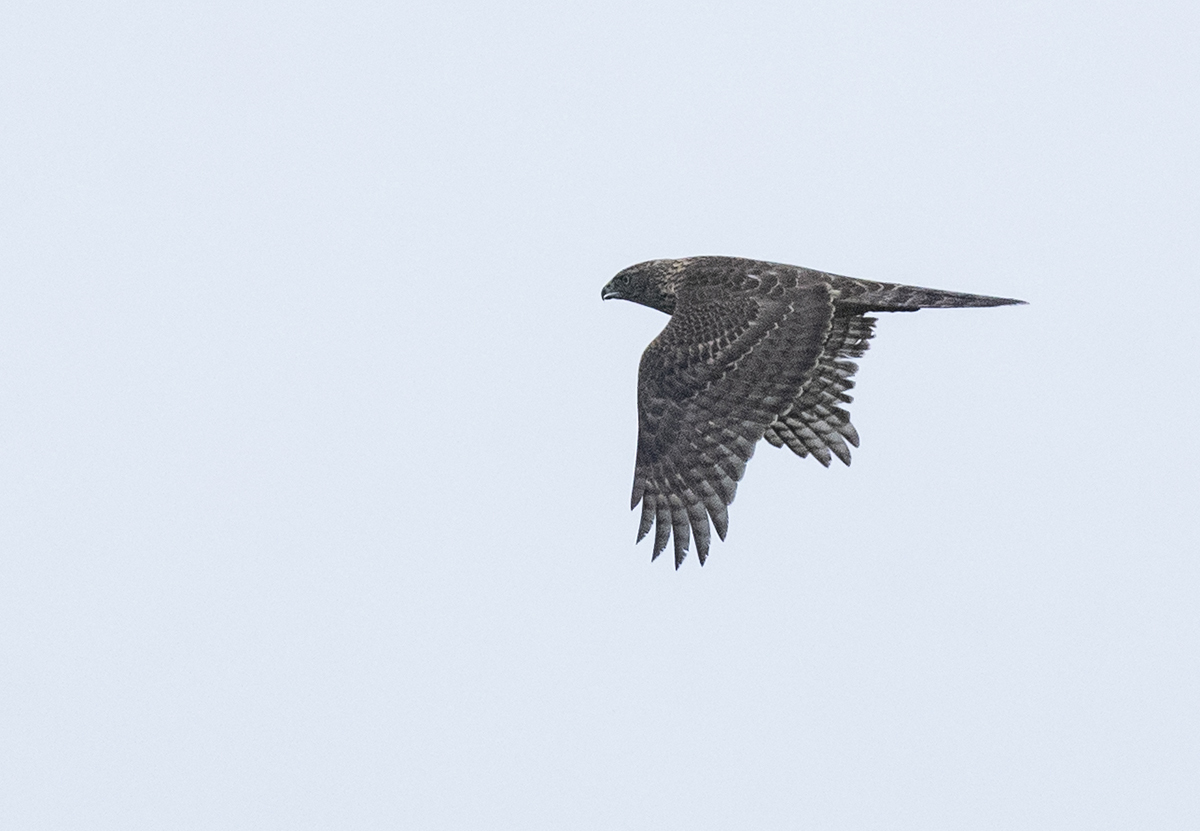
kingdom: Animalia
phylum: Chordata
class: Aves
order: Accipitriformes
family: Accipitridae
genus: Accipiter
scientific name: Accipiter gentilis
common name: Northern goshawk
